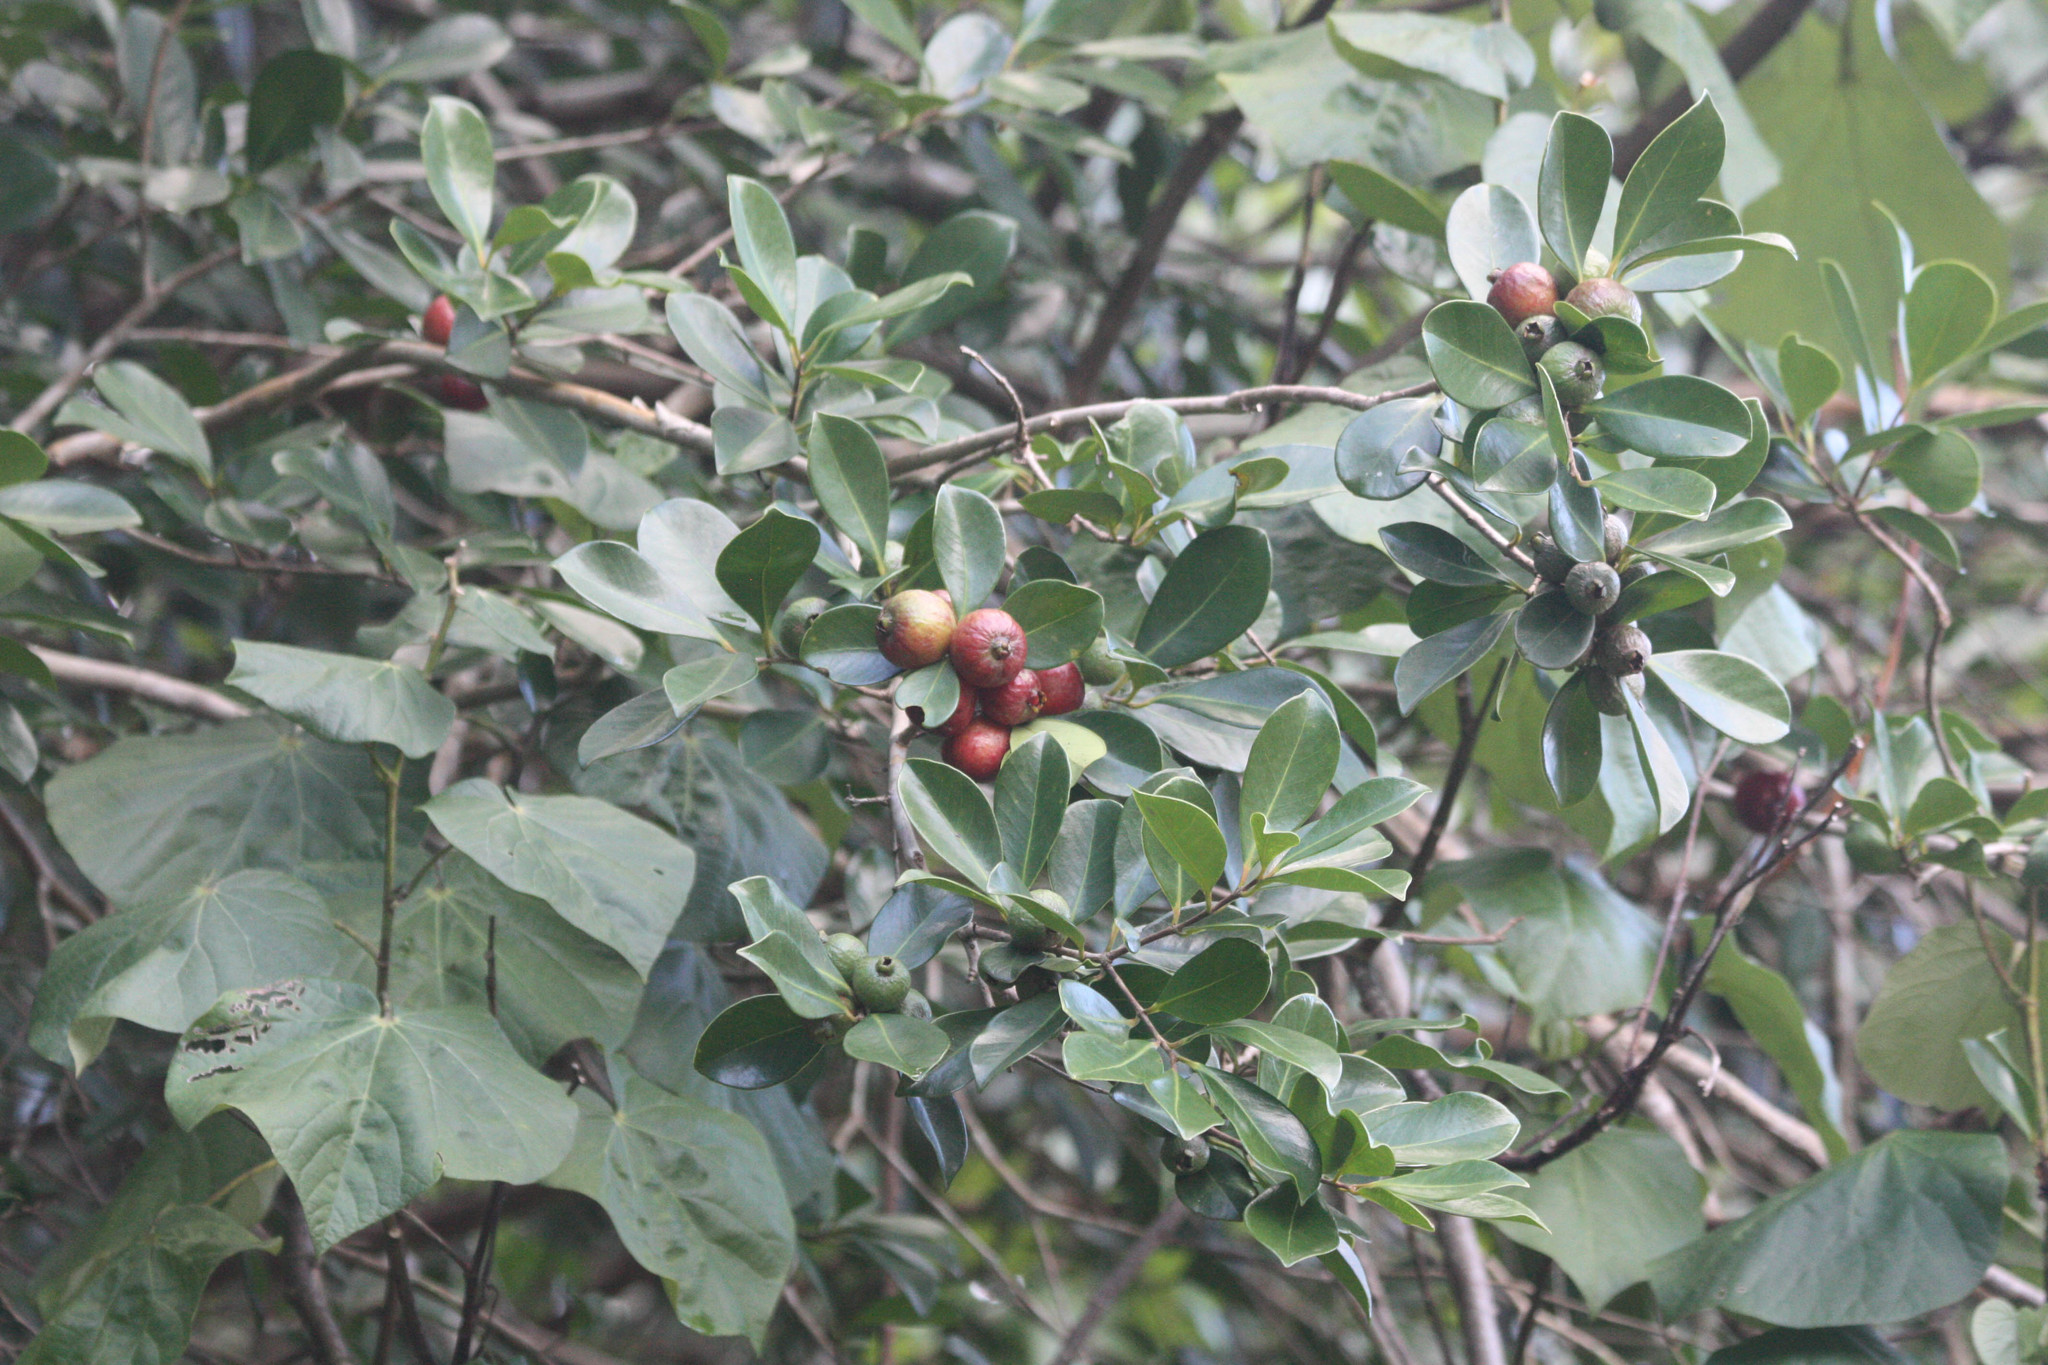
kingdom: Plantae
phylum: Tracheophyta
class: Magnoliopsida
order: Myrtales
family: Myrtaceae
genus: Psidium
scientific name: Psidium cattleianum
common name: Strawberry guava
